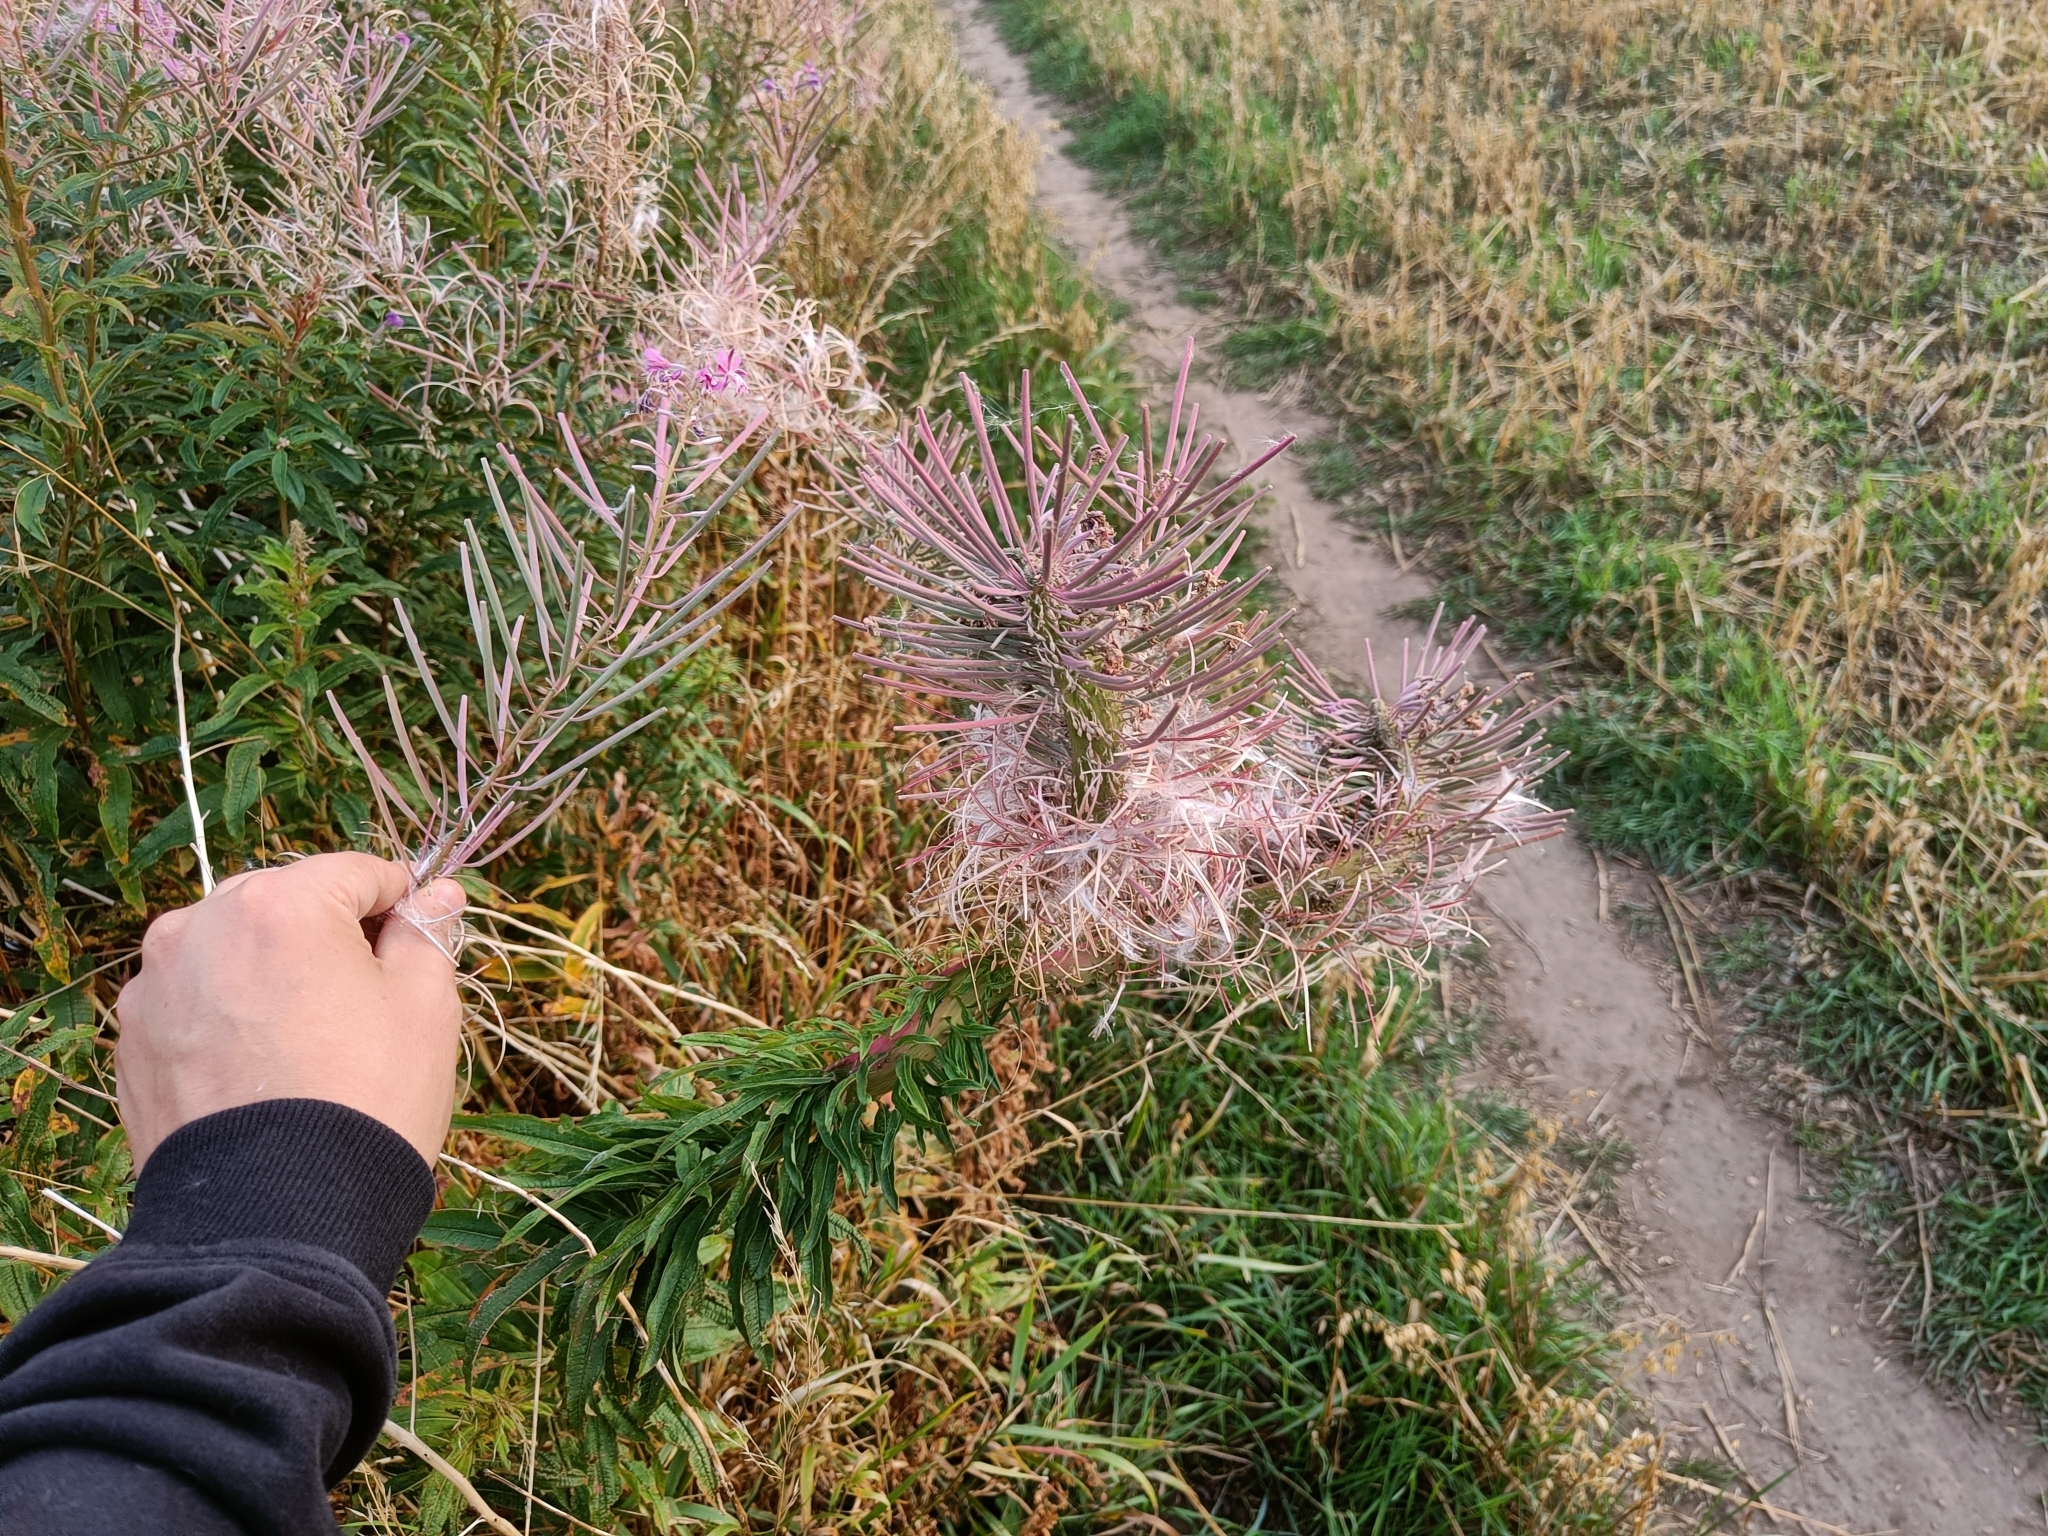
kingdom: Plantae
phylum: Tracheophyta
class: Magnoliopsida
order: Myrtales
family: Onagraceae
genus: Chamaenerion
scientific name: Chamaenerion angustifolium
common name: Fireweed
